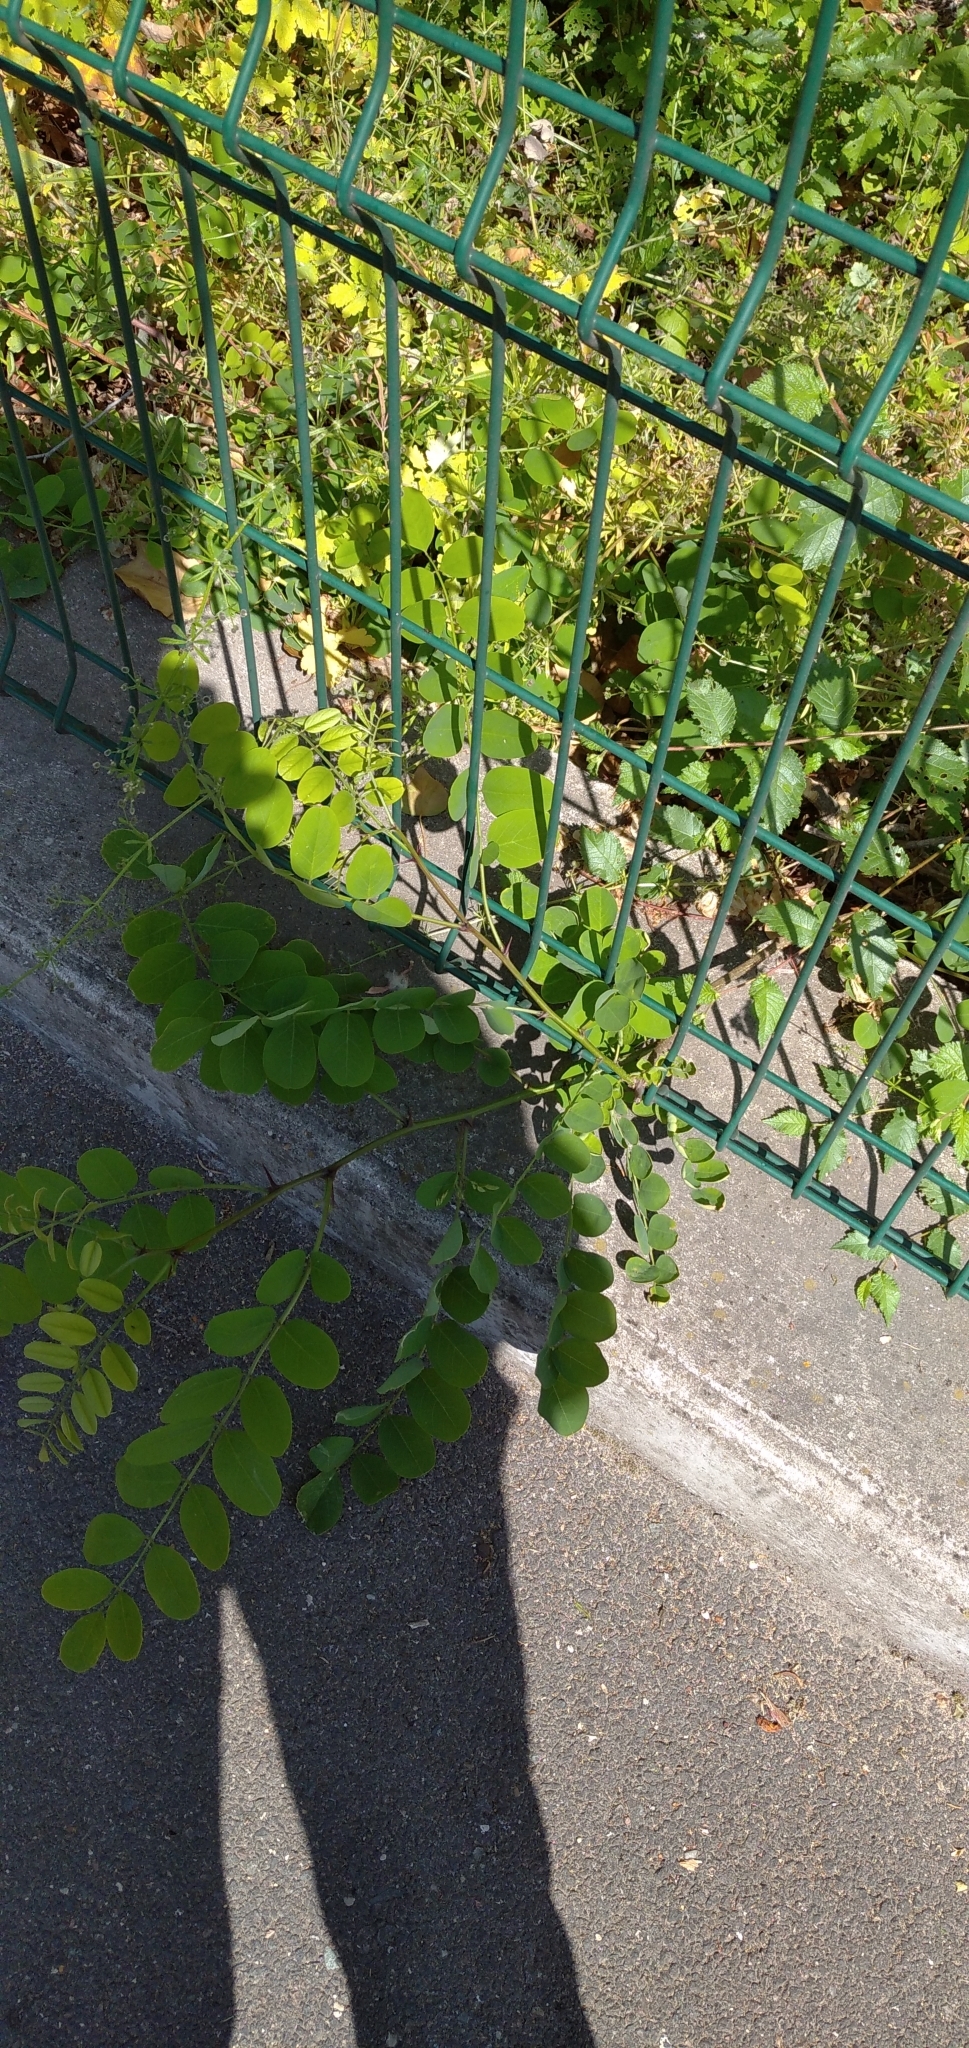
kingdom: Plantae
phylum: Tracheophyta
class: Magnoliopsida
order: Fabales
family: Fabaceae
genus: Robinia
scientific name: Robinia pseudoacacia
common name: Black locust
